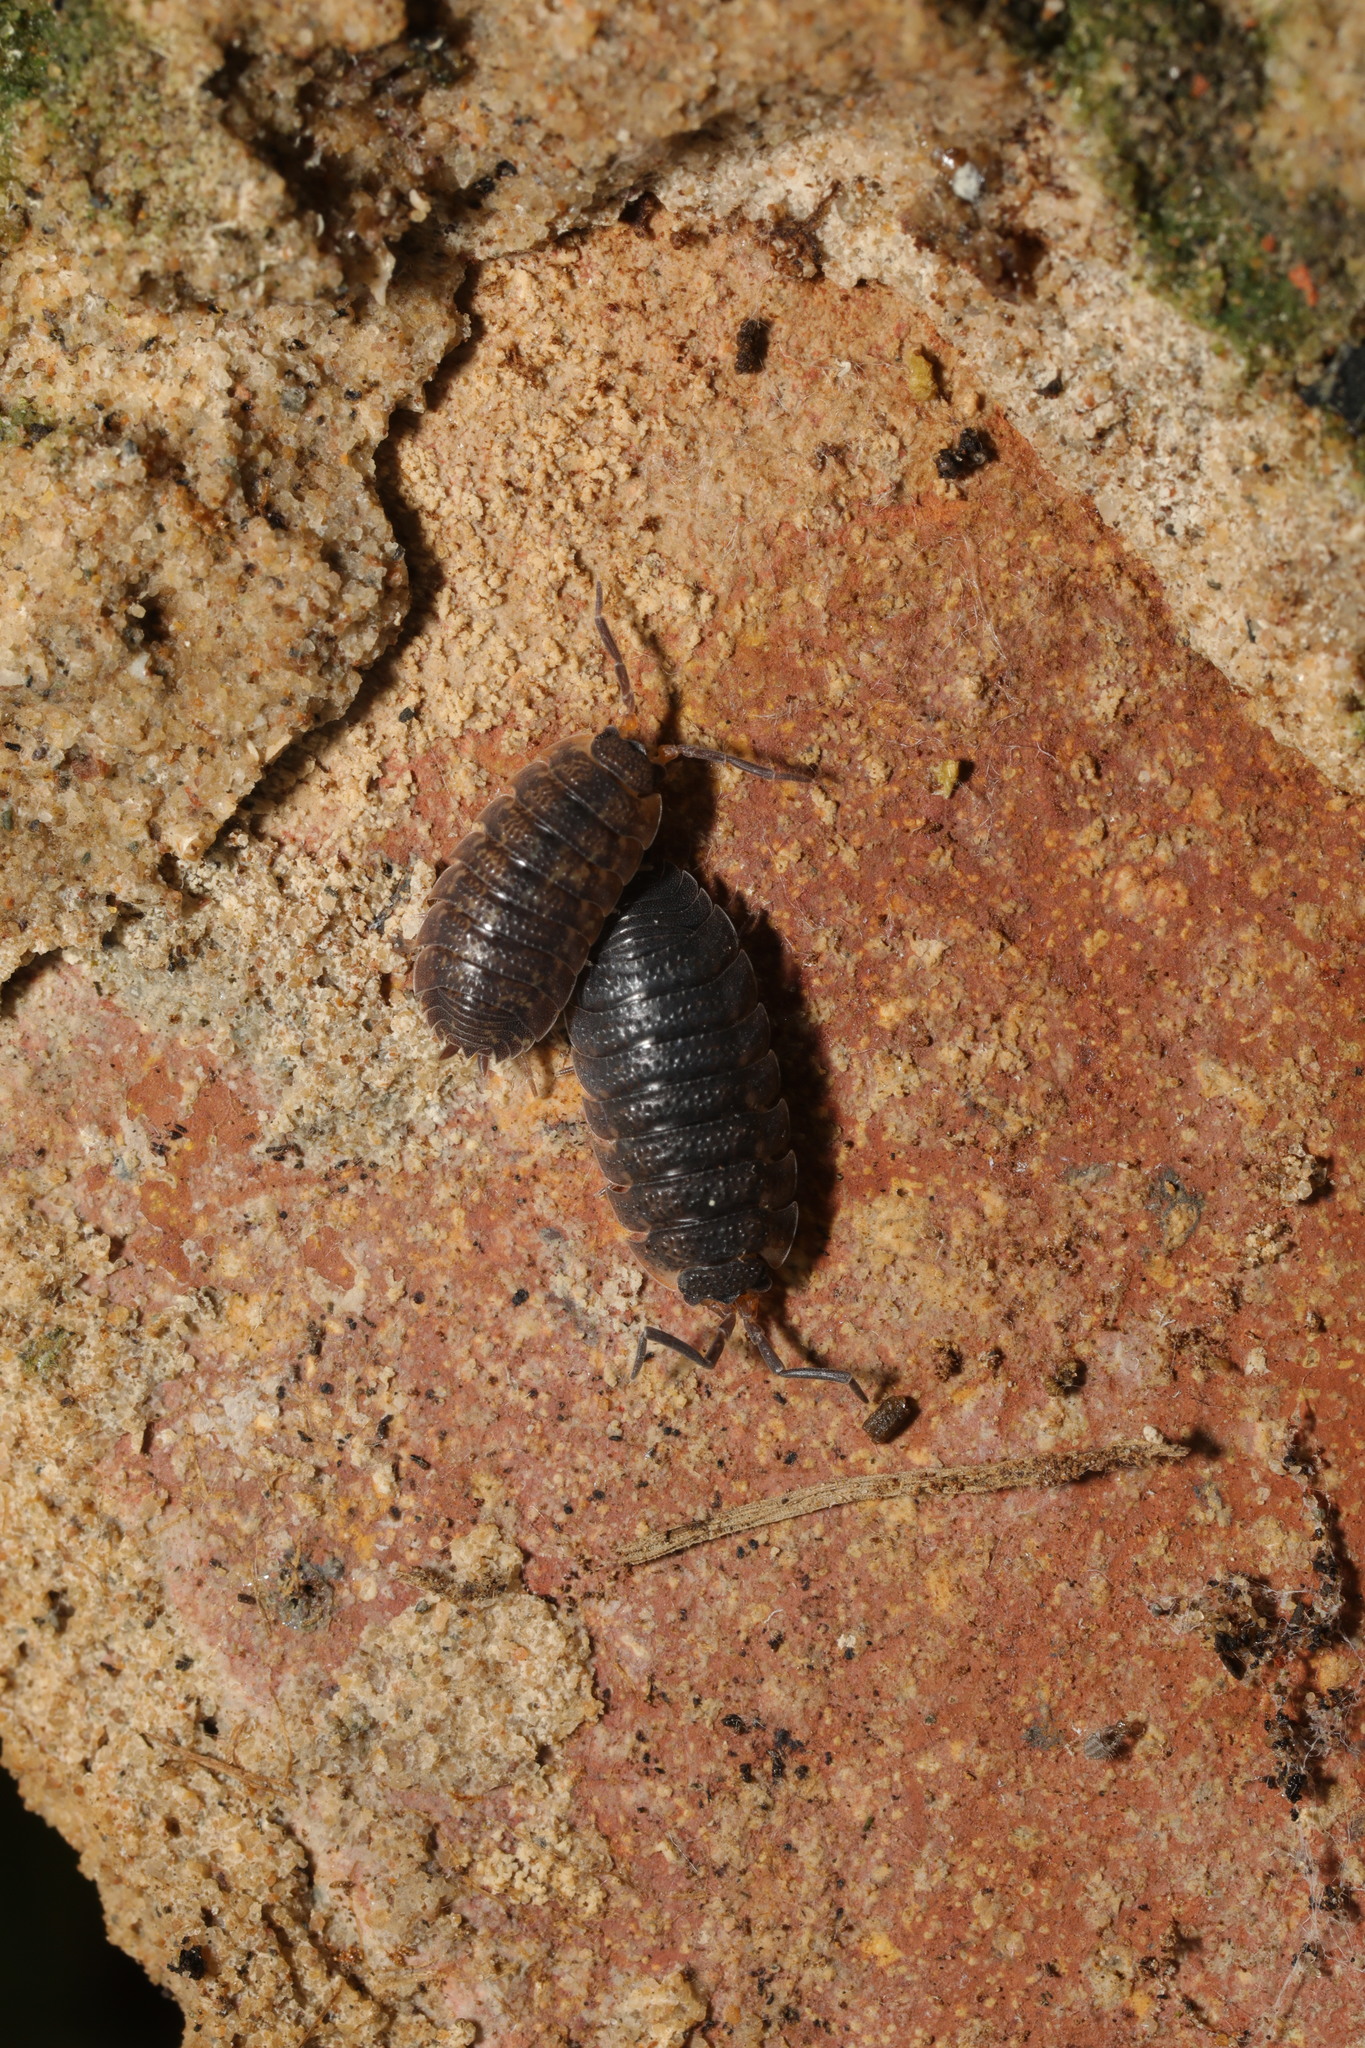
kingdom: Animalia
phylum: Arthropoda
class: Malacostraca
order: Isopoda
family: Porcellionidae
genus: Porcellio
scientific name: Porcellio scaber
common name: Common rough woodlouse
